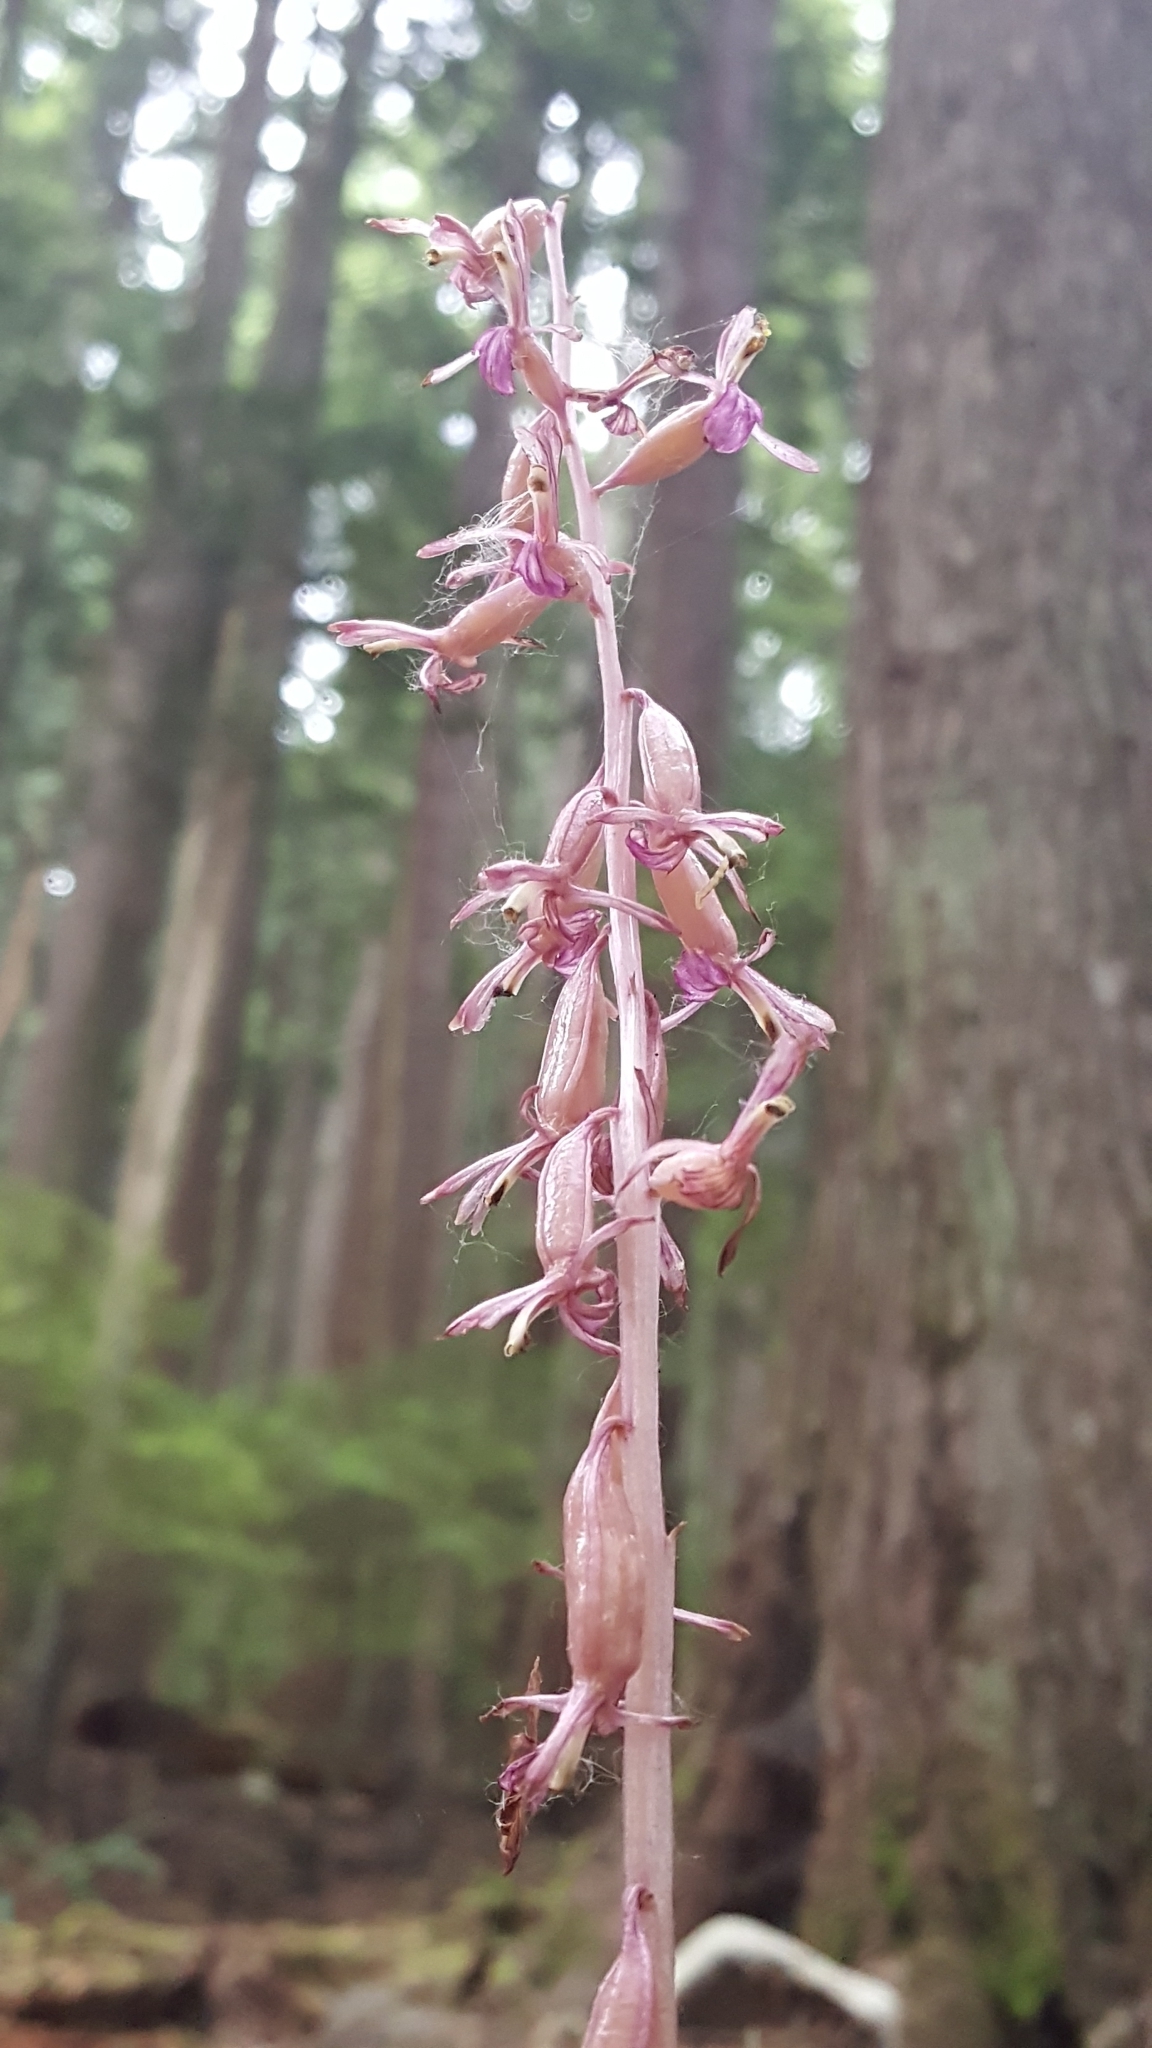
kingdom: Plantae
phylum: Tracheophyta
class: Liliopsida
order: Asparagales
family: Orchidaceae
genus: Corallorhiza
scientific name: Corallorhiza mertensiana
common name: Pacific coralroot
